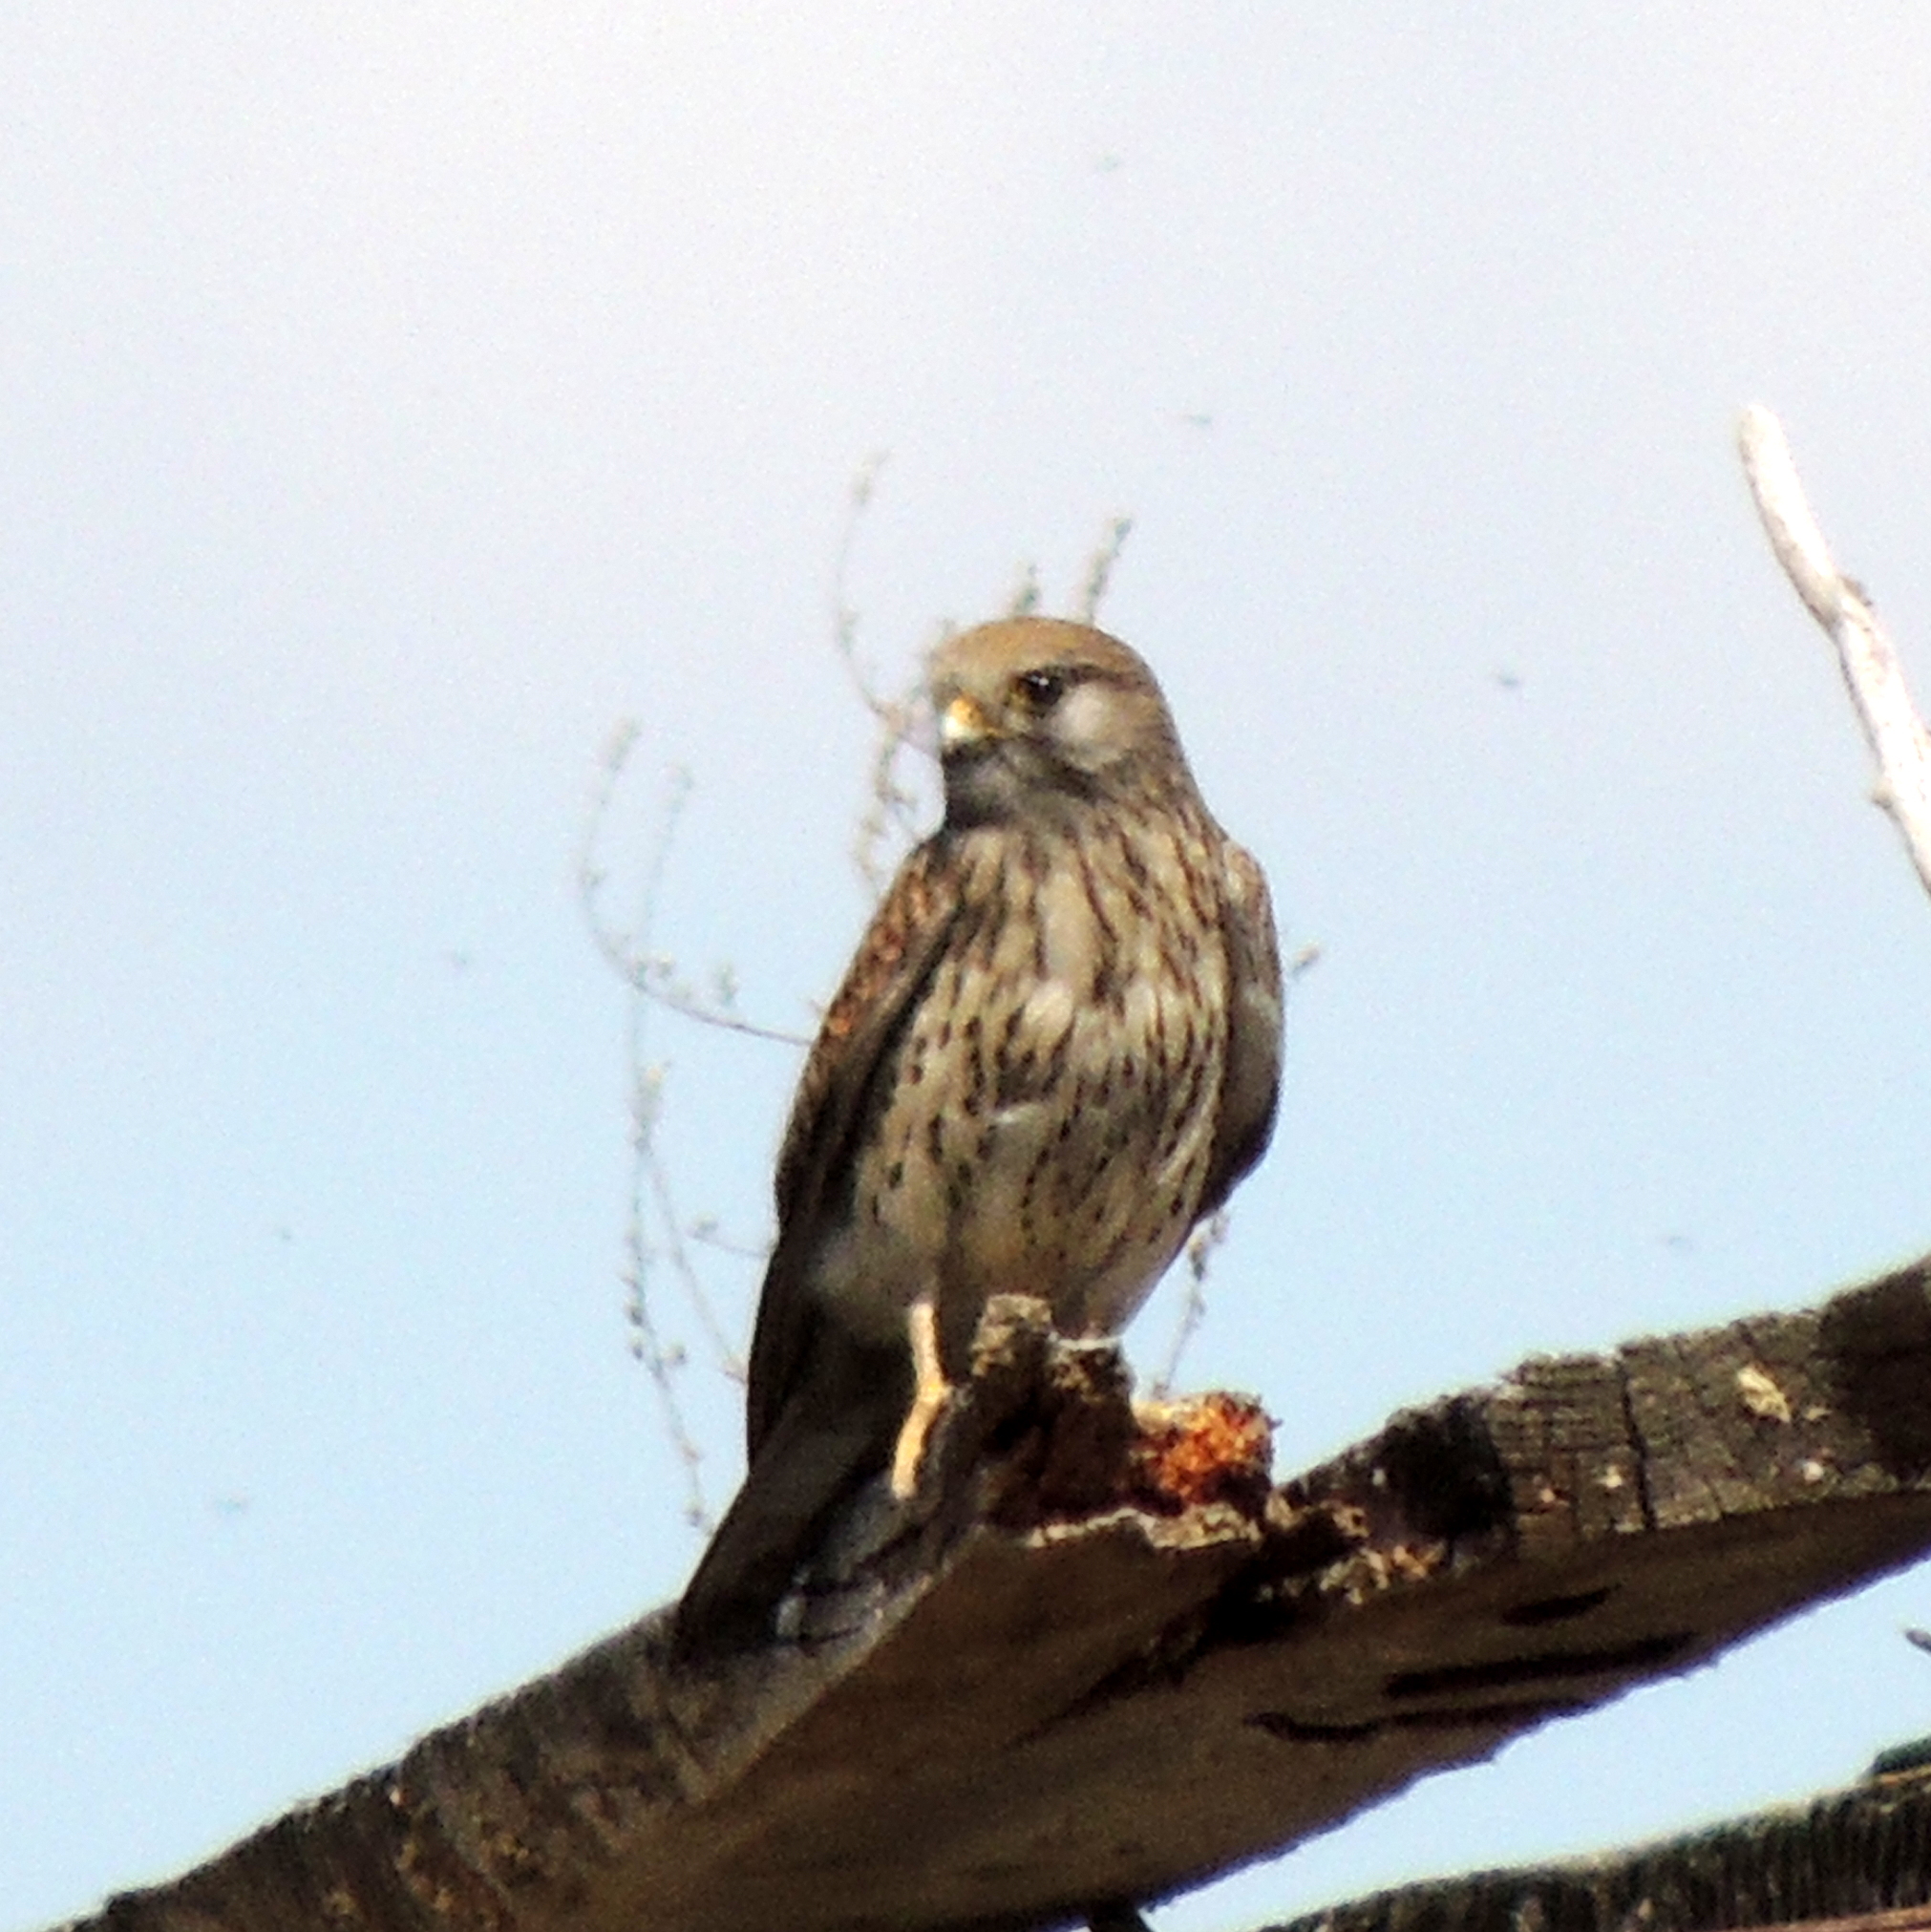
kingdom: Animalia
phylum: Chordata
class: Aves
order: Falconiformes
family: Falconidae
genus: Falco
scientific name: Falco tinnunculus
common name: Common kestrel
